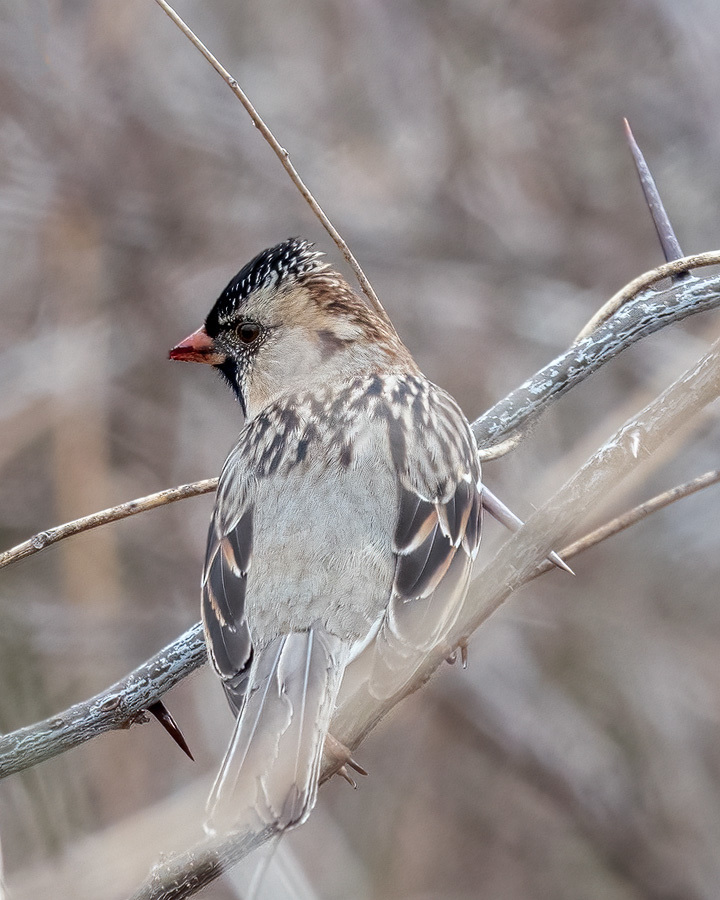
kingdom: Animalia
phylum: Chordata
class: Aves
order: Passeriformes
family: Passerellidae
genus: Zonotrichia
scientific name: Zonotrichia querula
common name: Harris's sparrow
